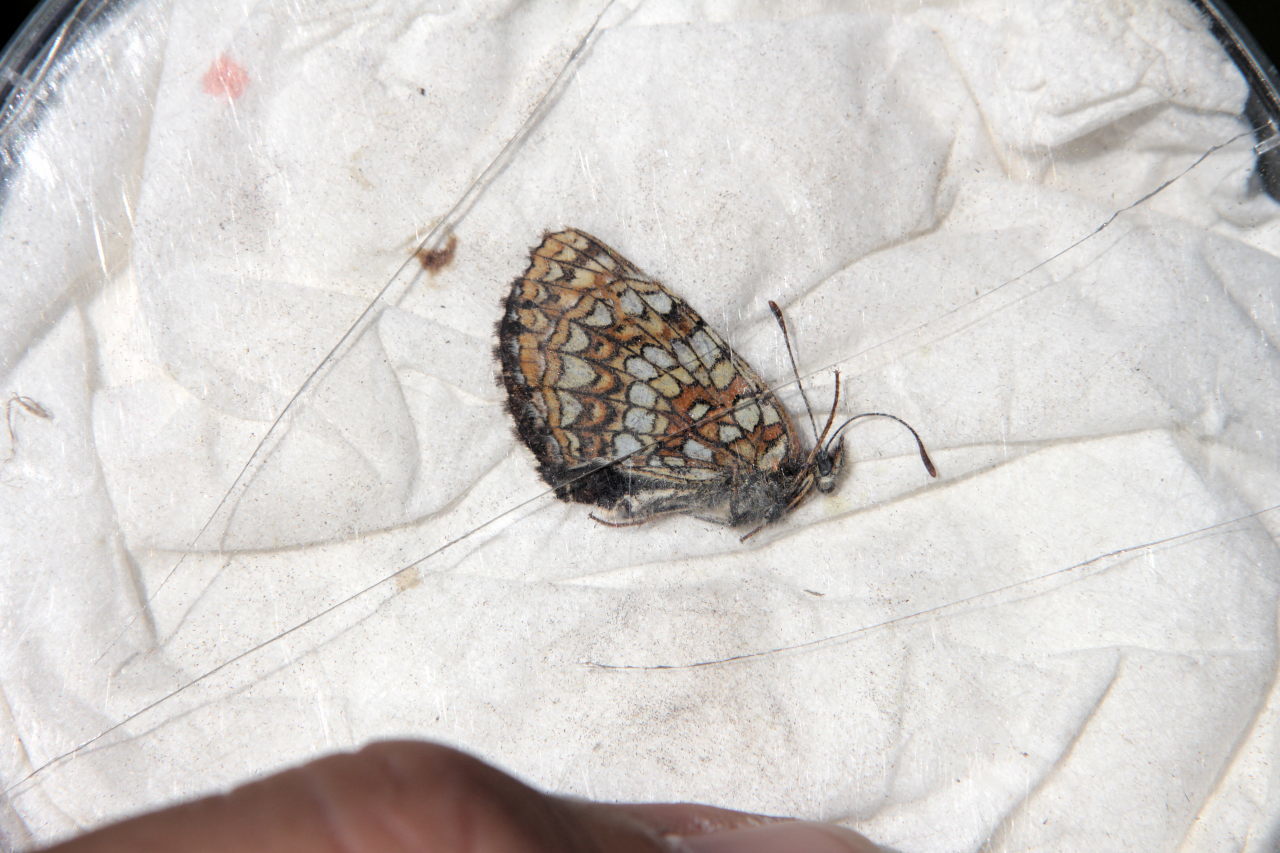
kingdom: Animalia
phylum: Arthropoda
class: Insecta
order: Lepidoptera
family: Nymphalidae
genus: Melitaea
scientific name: Melitaea diamina
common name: False heath fritillary
